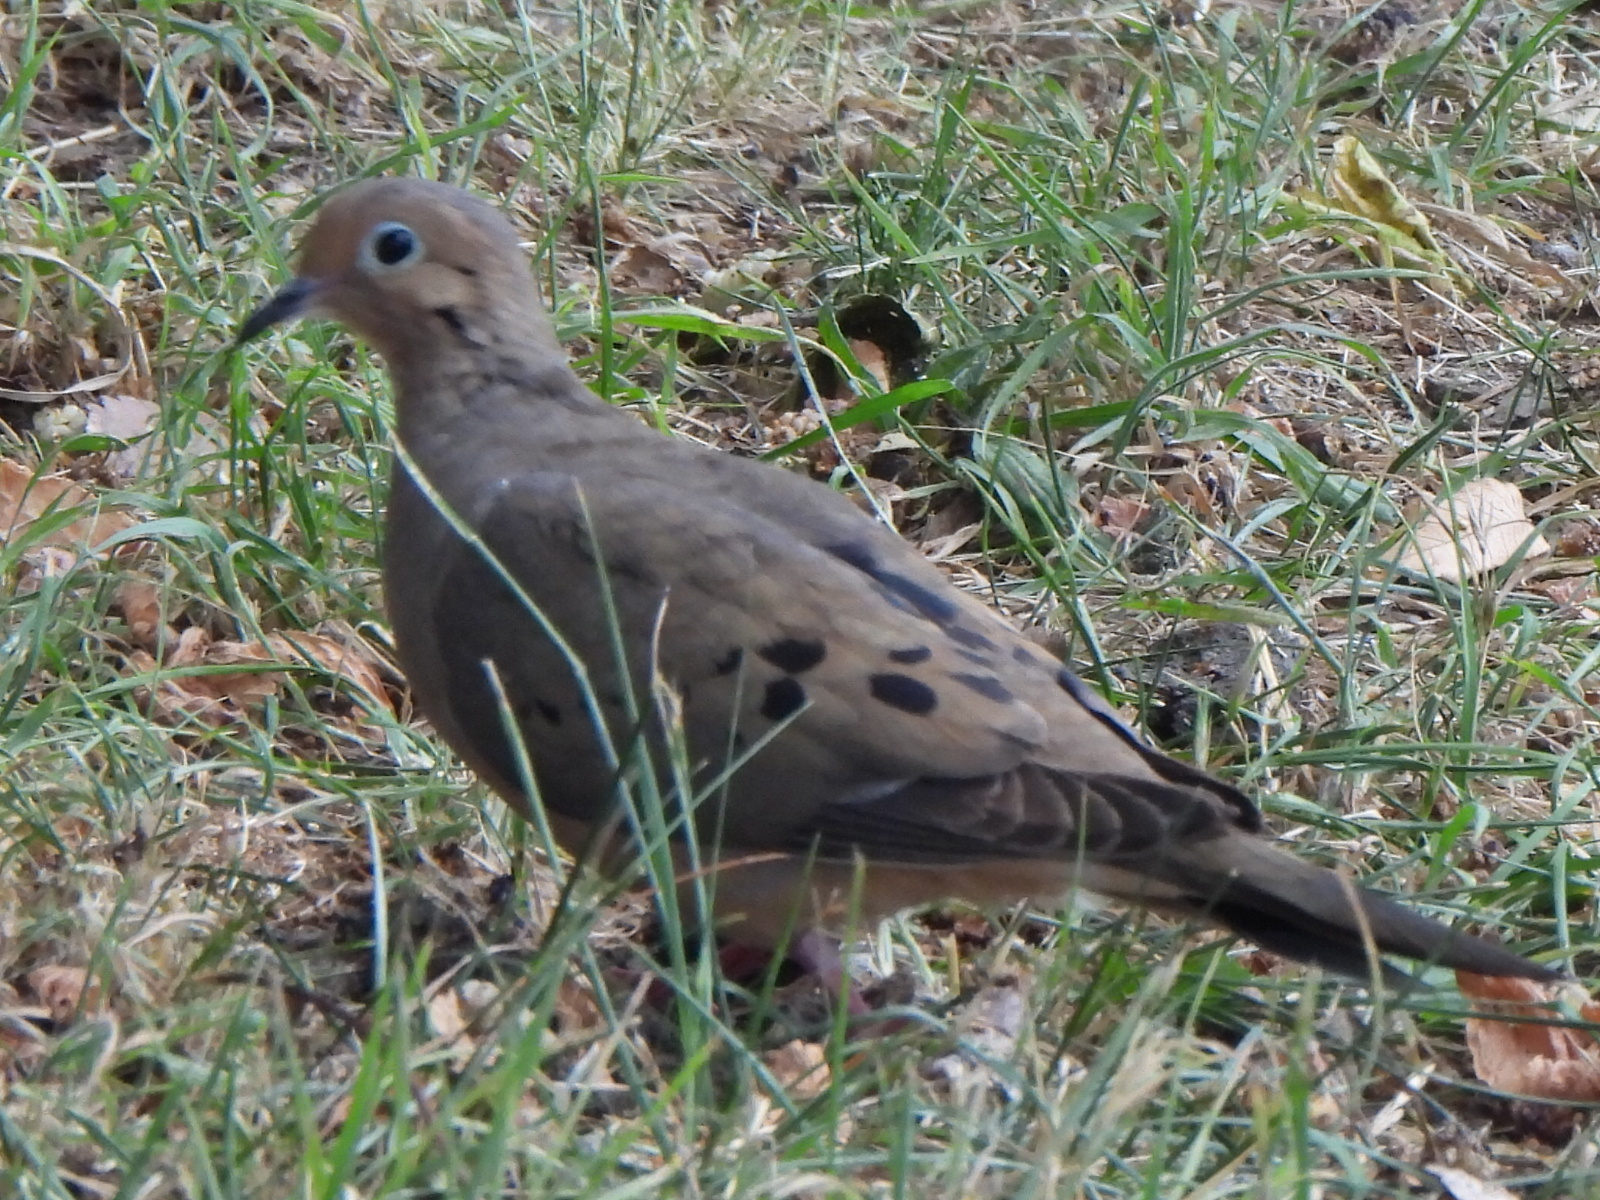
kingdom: Animalia
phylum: Chordata
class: Aves
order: Columbiformes
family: Columbidae
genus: Zenaida
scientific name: Zenaida macroura
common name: Mourning dove
